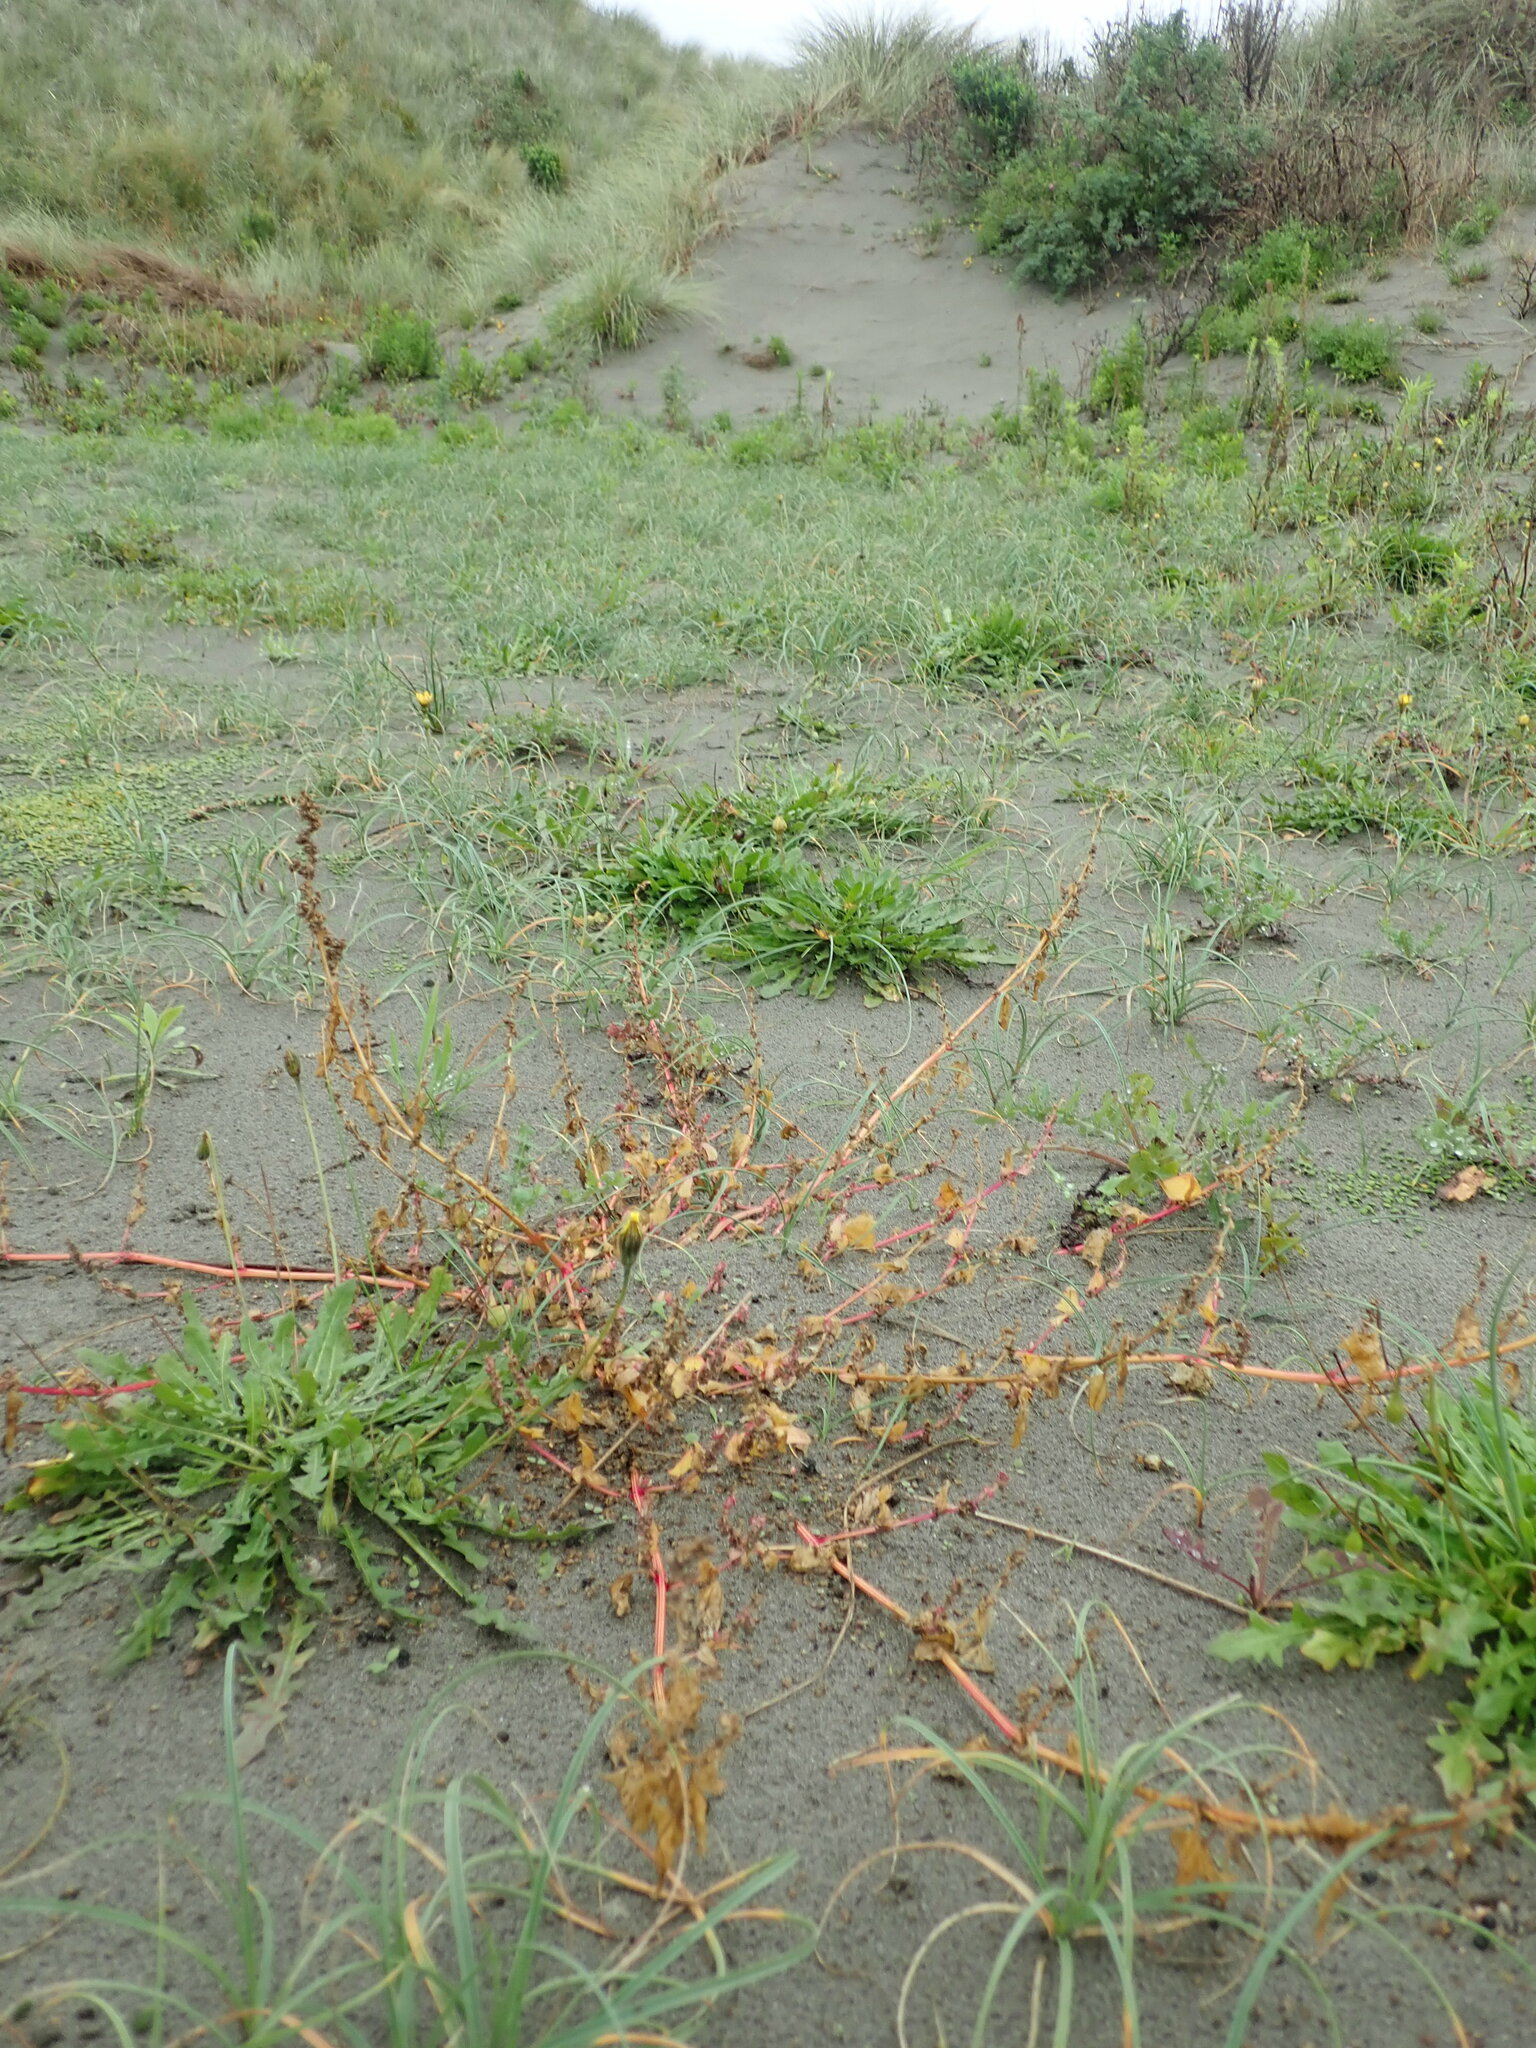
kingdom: Plantae
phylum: Tracheophyta
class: Magnoliopsida
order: Caryophyllales
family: Amaranthaceae
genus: Atriplex
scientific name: Atriplex prostrata
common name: Spear-leaved orache
